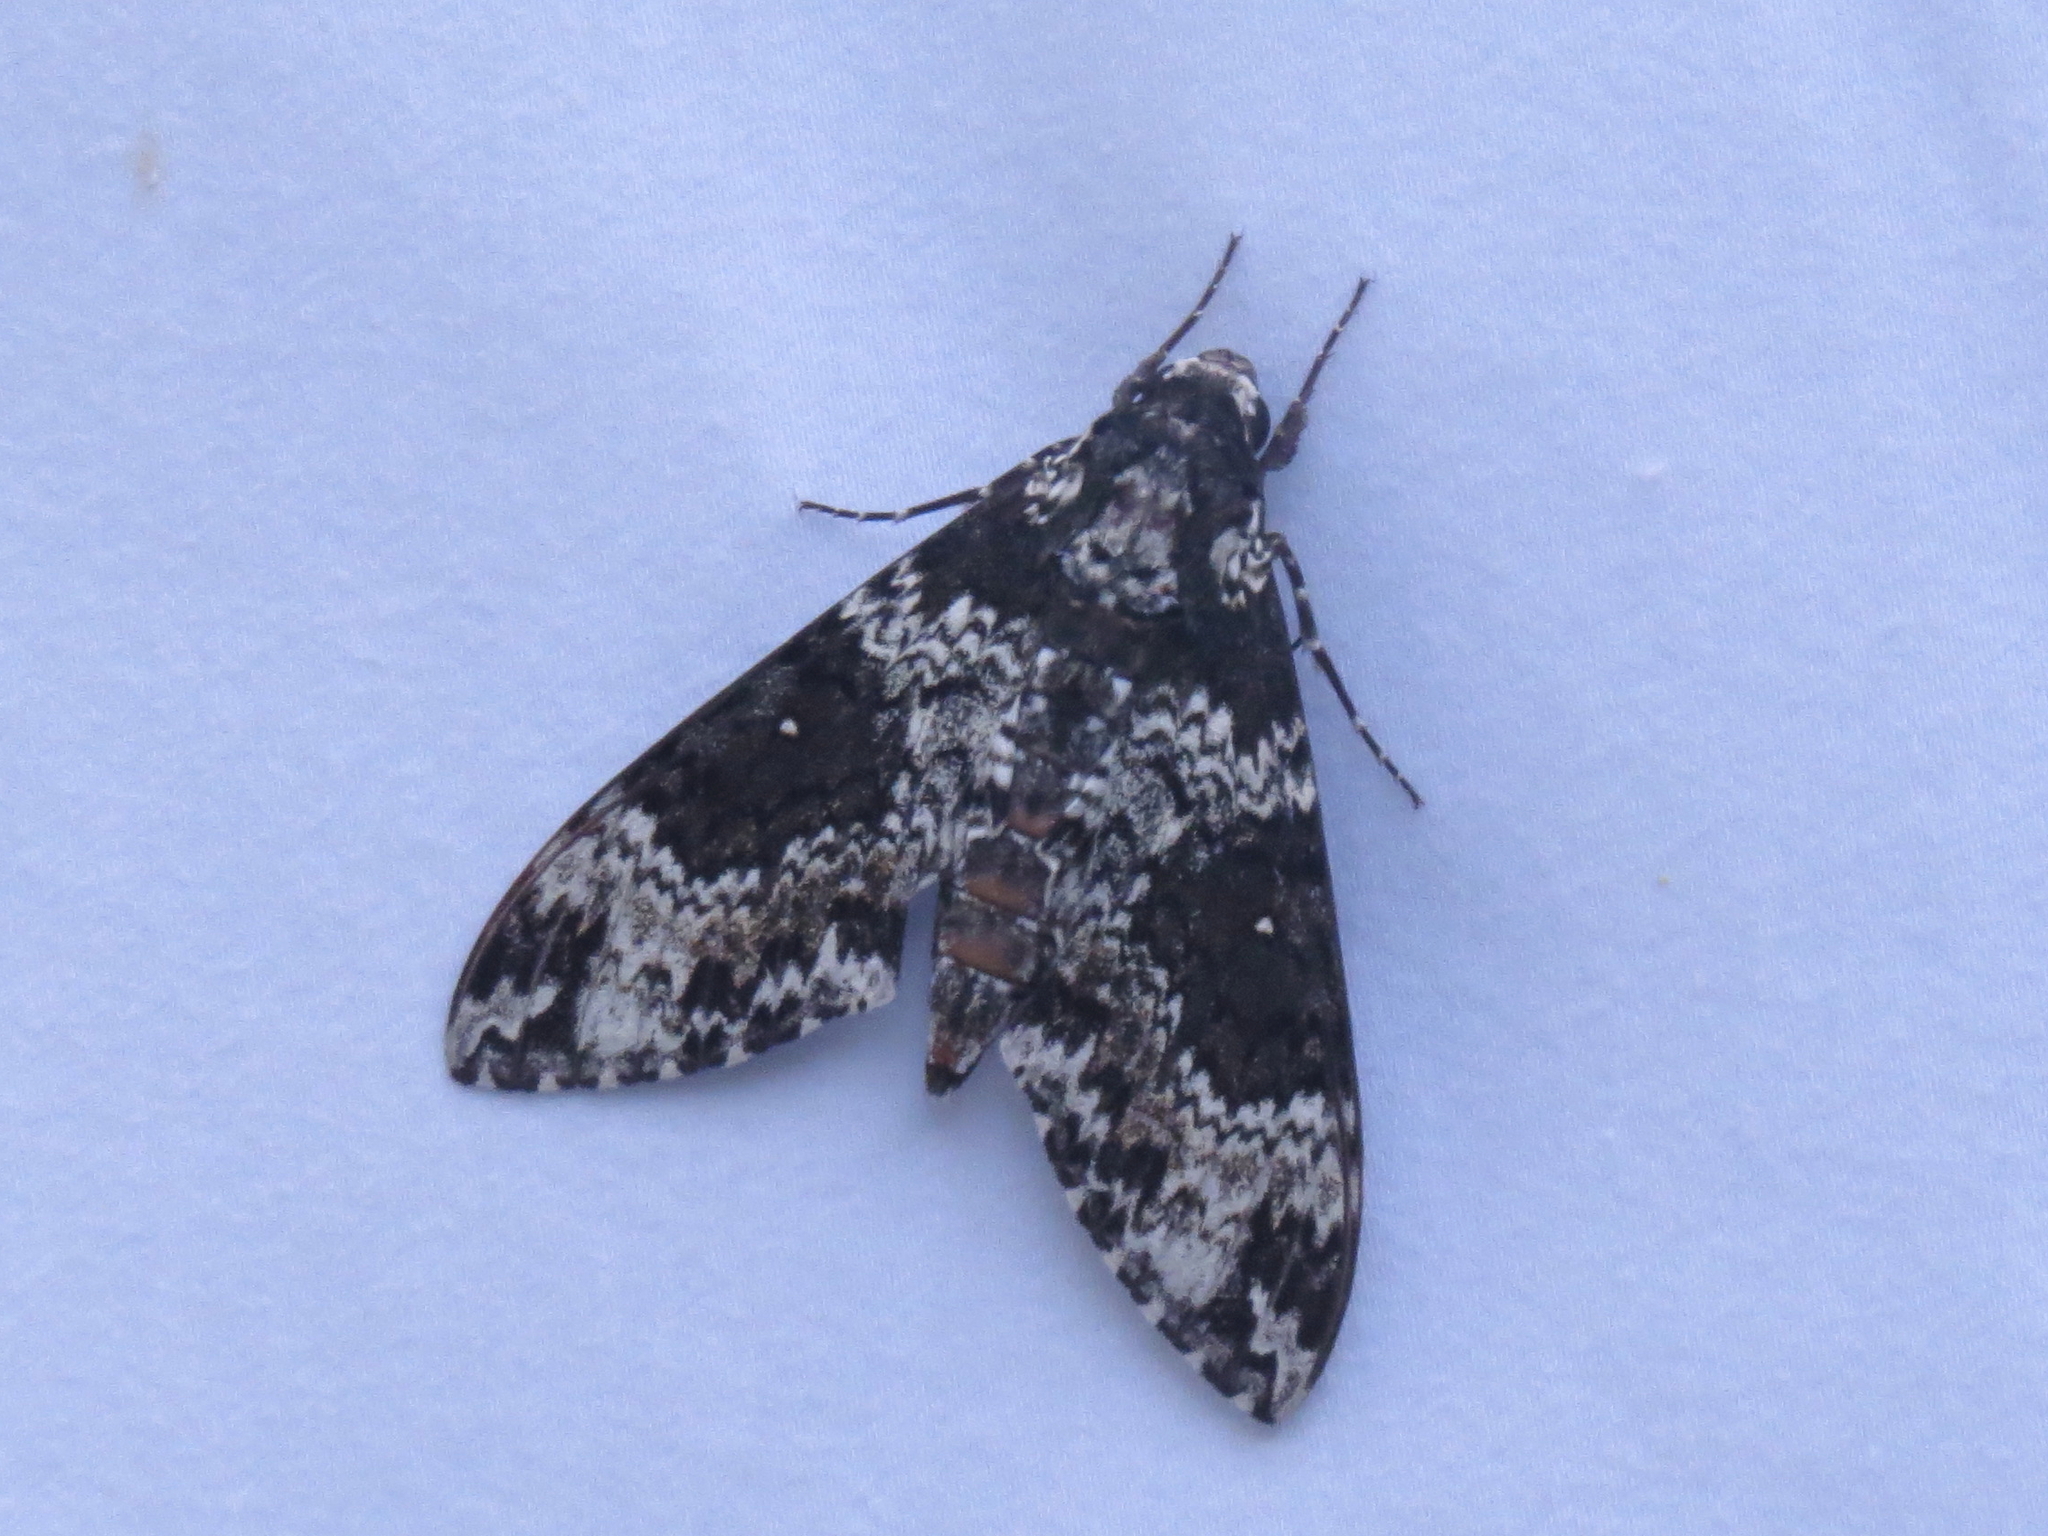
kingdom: Animalia
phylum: Arthropoda
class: Insecta
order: Lepidoptera
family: Sphingidae
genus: Manduca
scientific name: Manduca rustica
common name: Rustic sphinx
